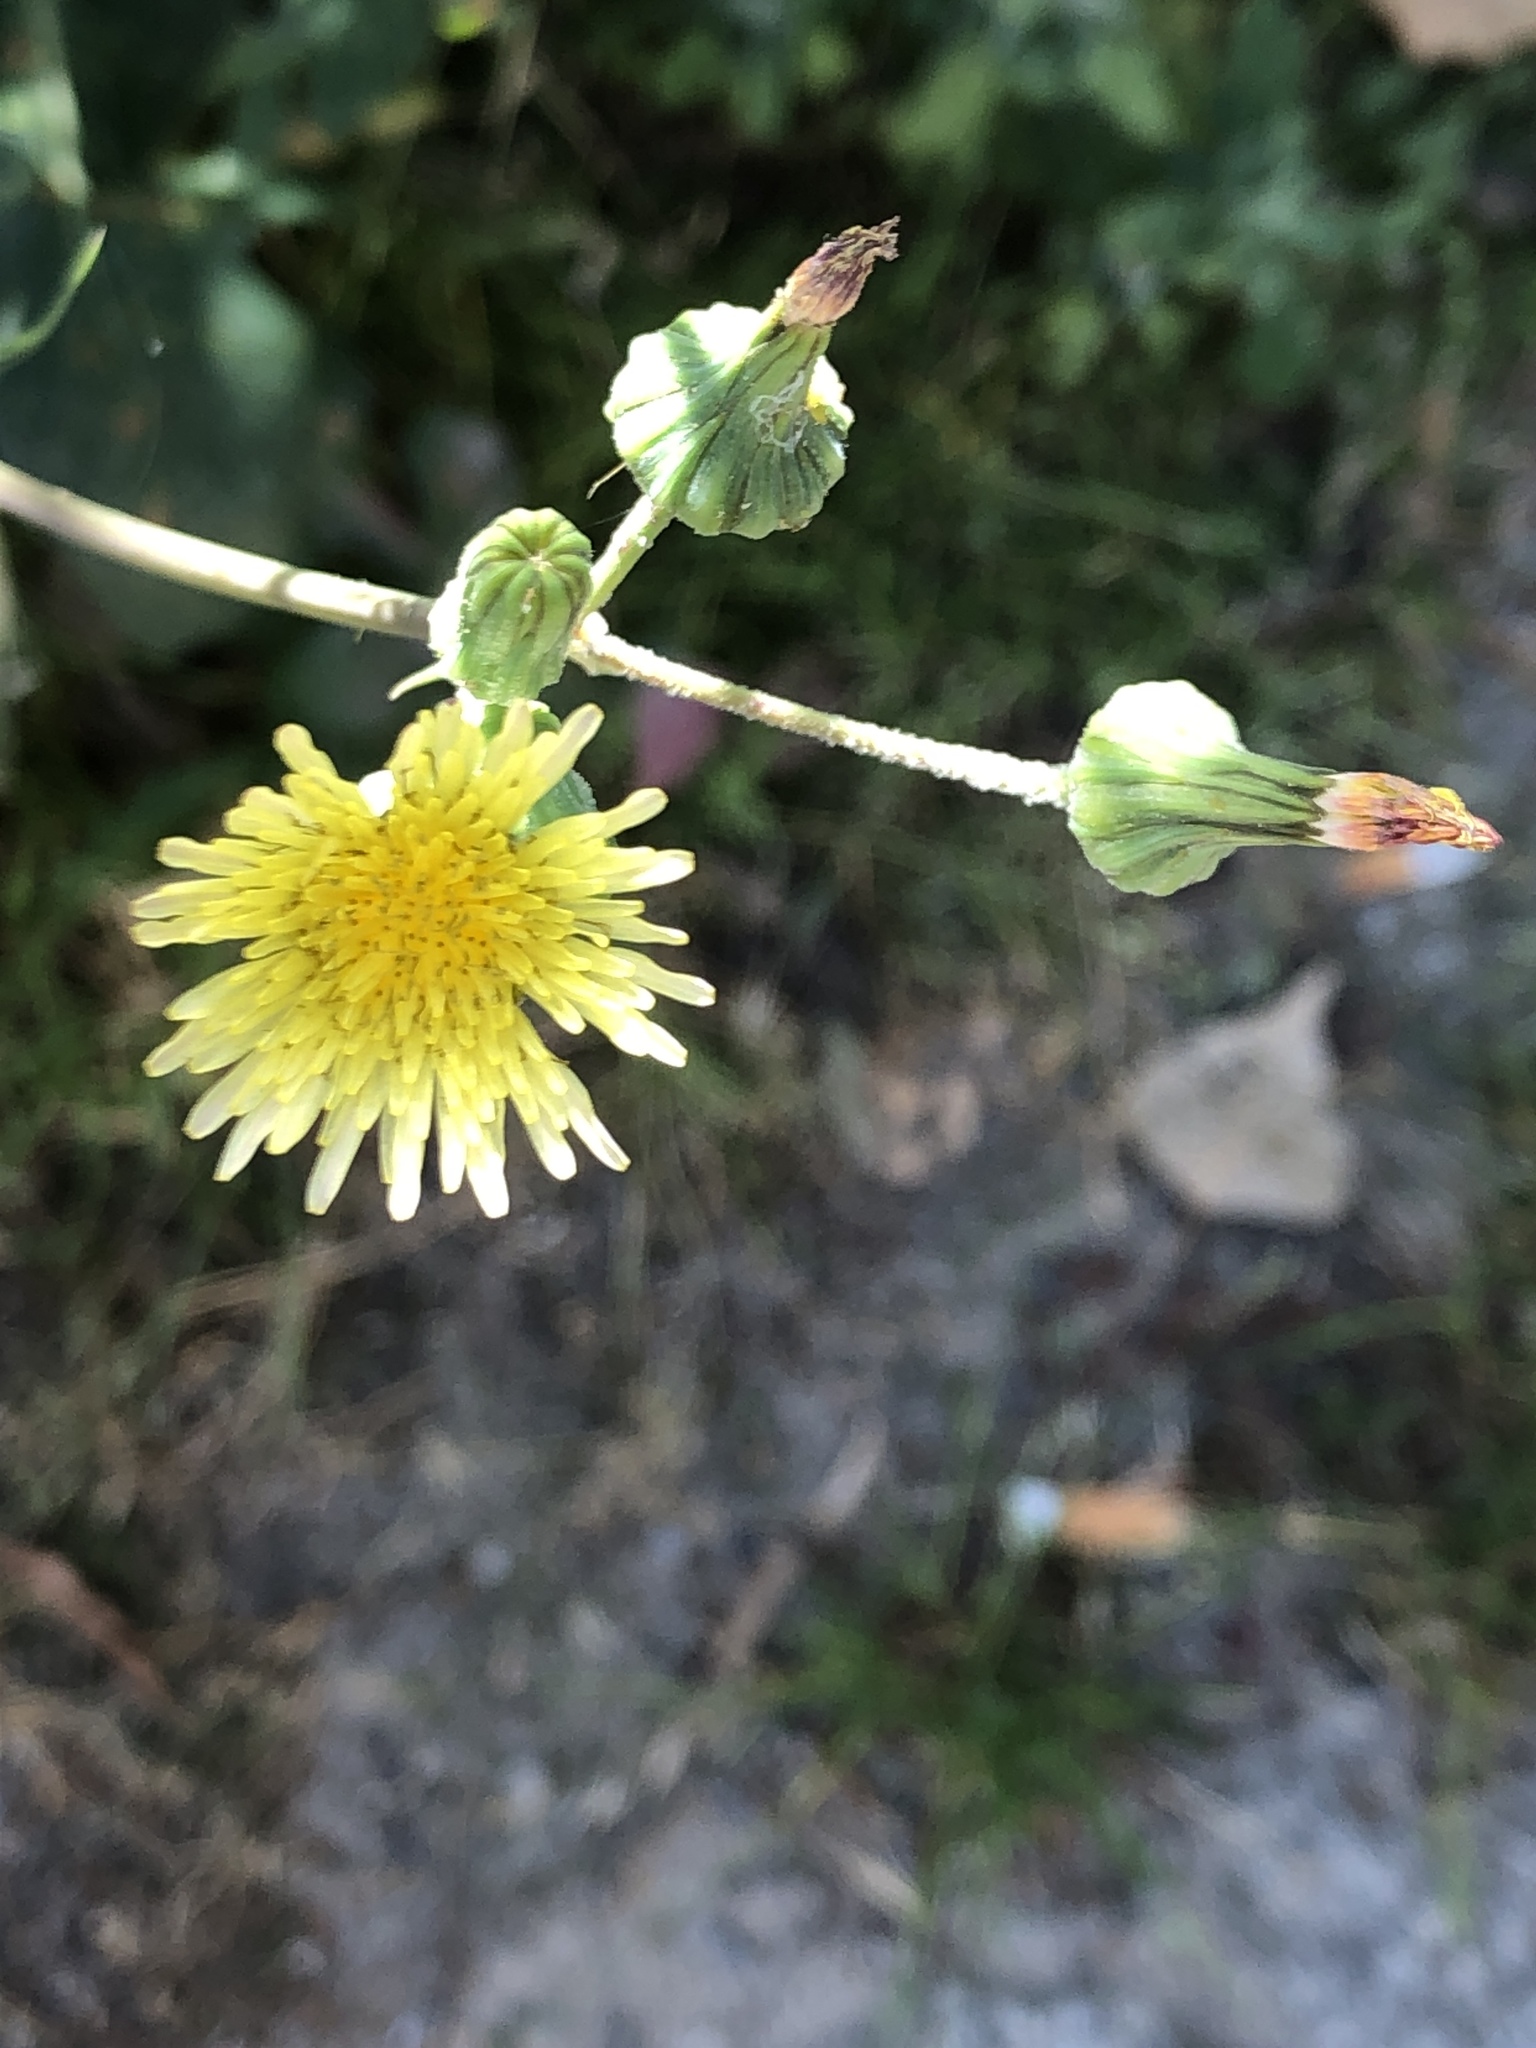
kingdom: Plantae
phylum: Tracheophyta
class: Magnoliopsida
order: Asterales
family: Asteraceae
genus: Sonchus
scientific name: Sonchus oleraceus
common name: Common sowthistle
